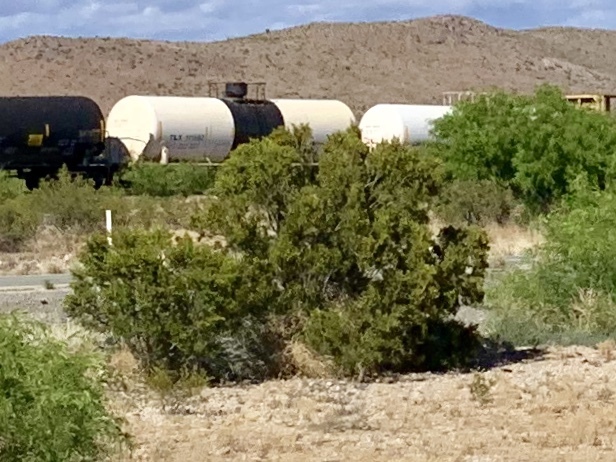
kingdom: Plantae
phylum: Tracheophyta
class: Magnoliopsida
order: Zygophyllales
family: Zygophyllaceae
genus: Larrea
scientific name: Larrea tridentata
